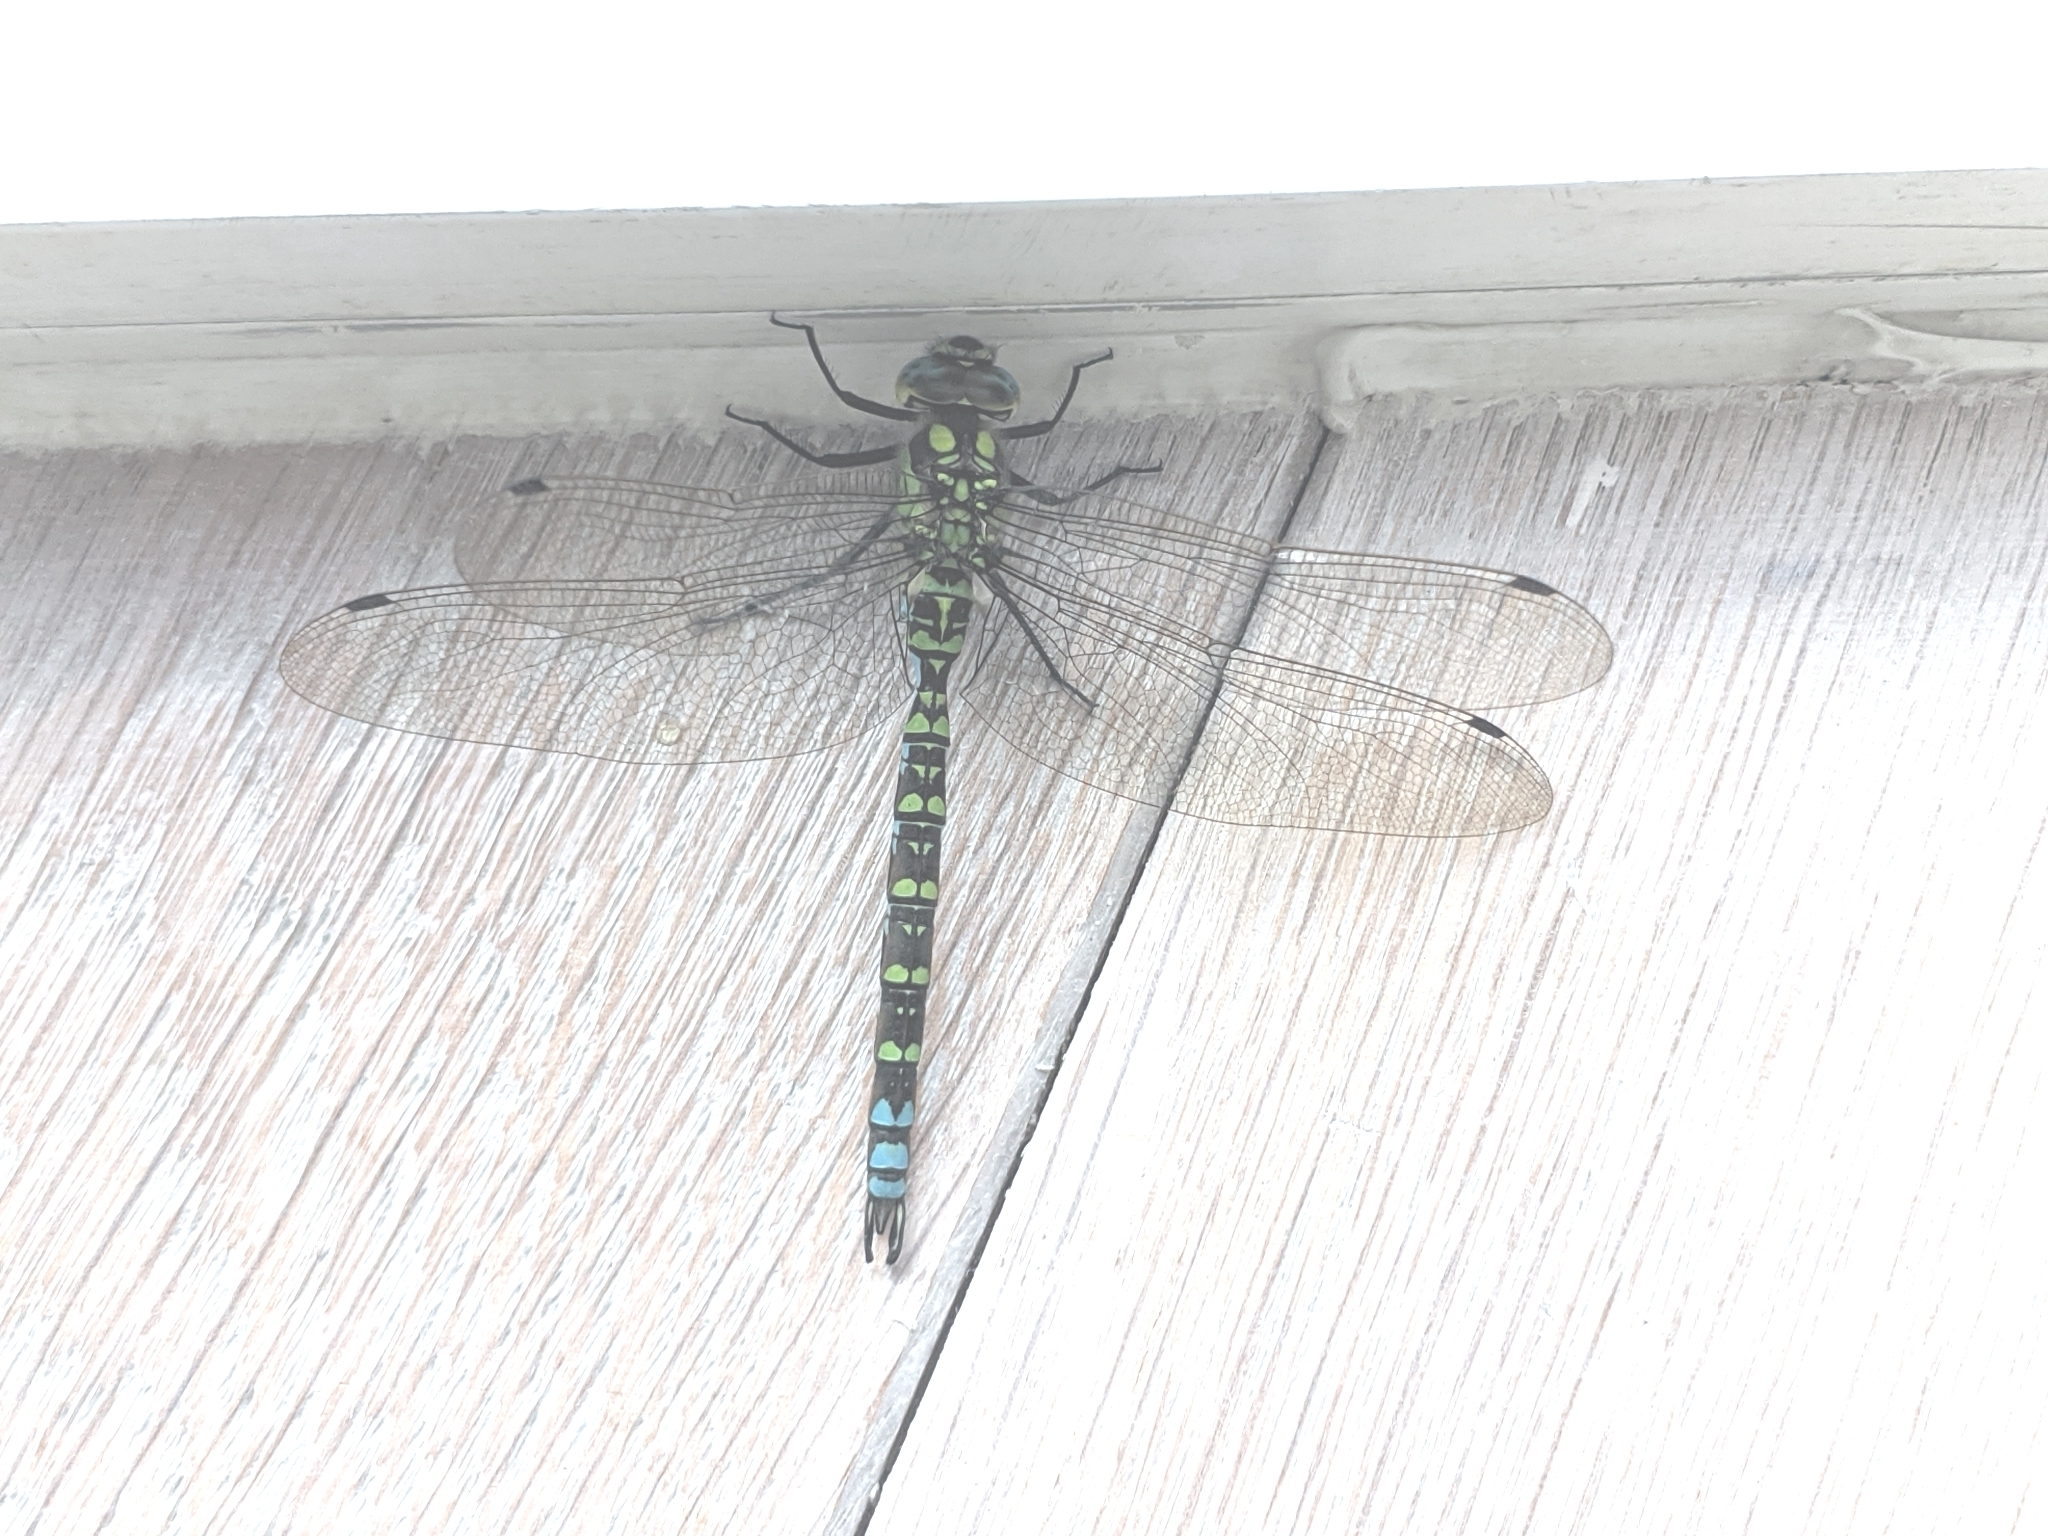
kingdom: Animalia
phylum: Arthropoda
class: Insecta
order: Odonata
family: Aeshnidae
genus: Aeshna
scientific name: Aeshna cyanea
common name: Southern hawker
